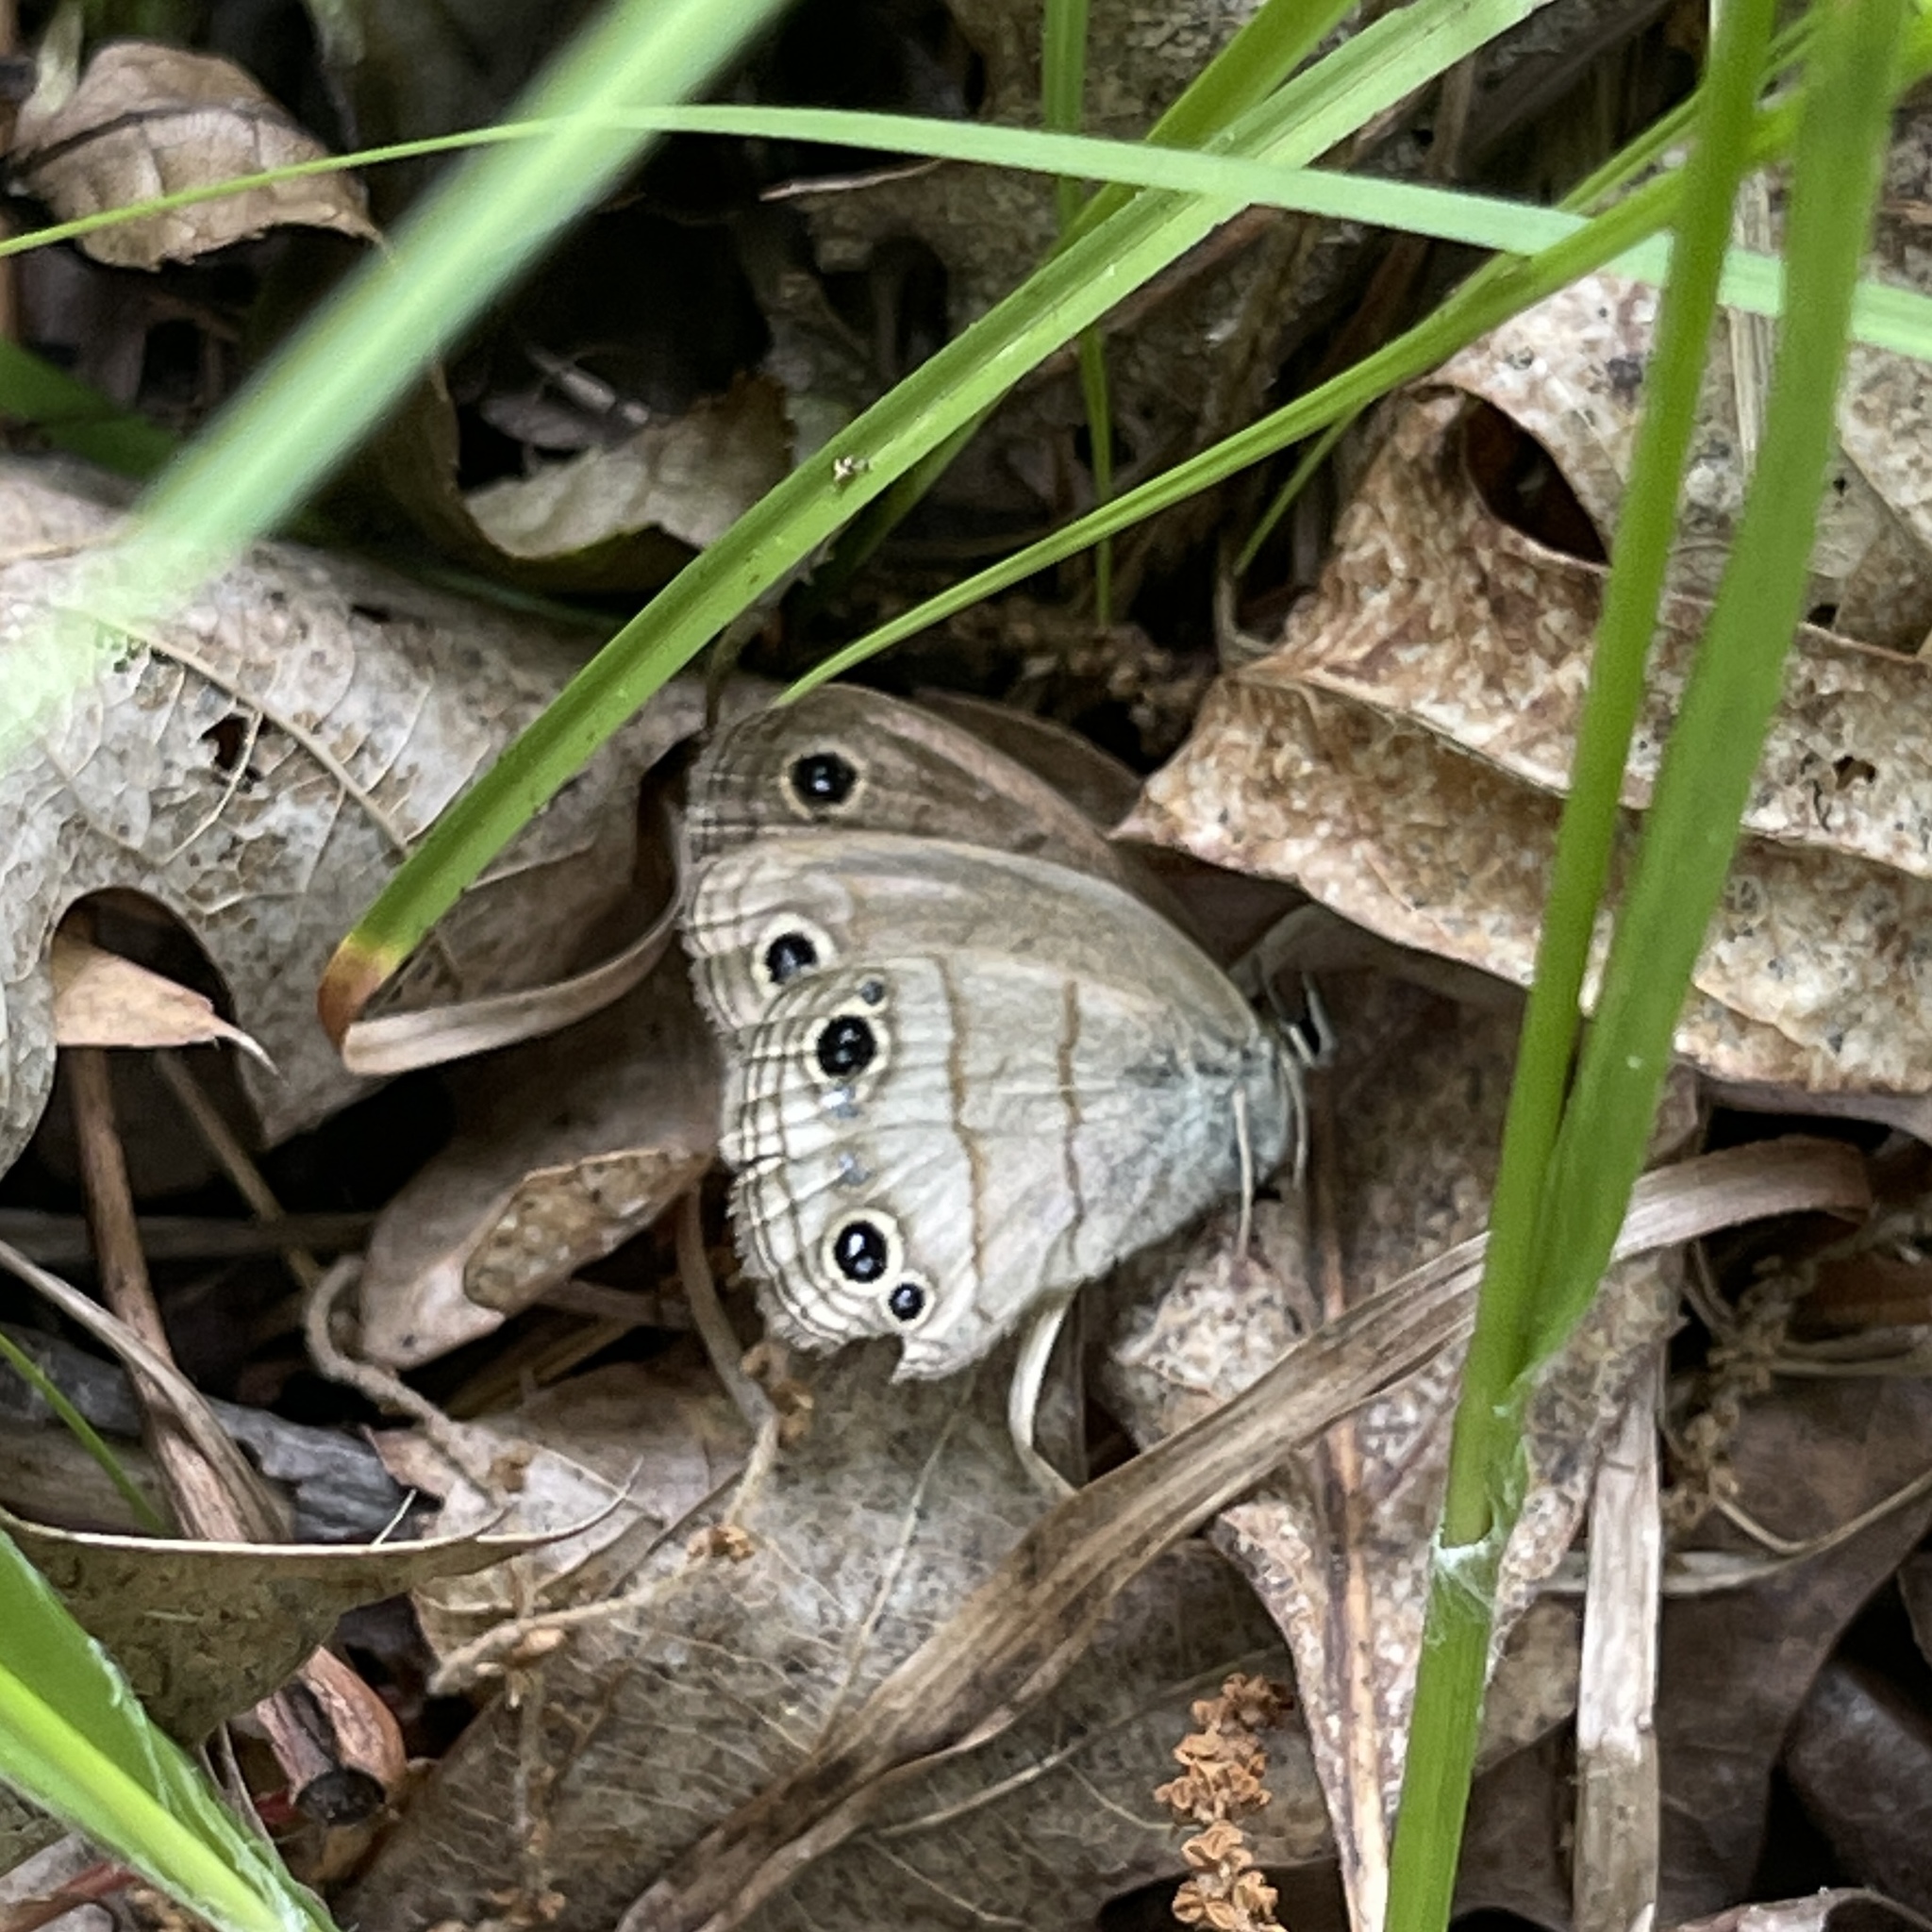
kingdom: Animalia
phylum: Arthropoda
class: Insecta
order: Lepidoptera
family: Nymphalidae
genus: Euptychia
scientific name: Euptychia cymela
